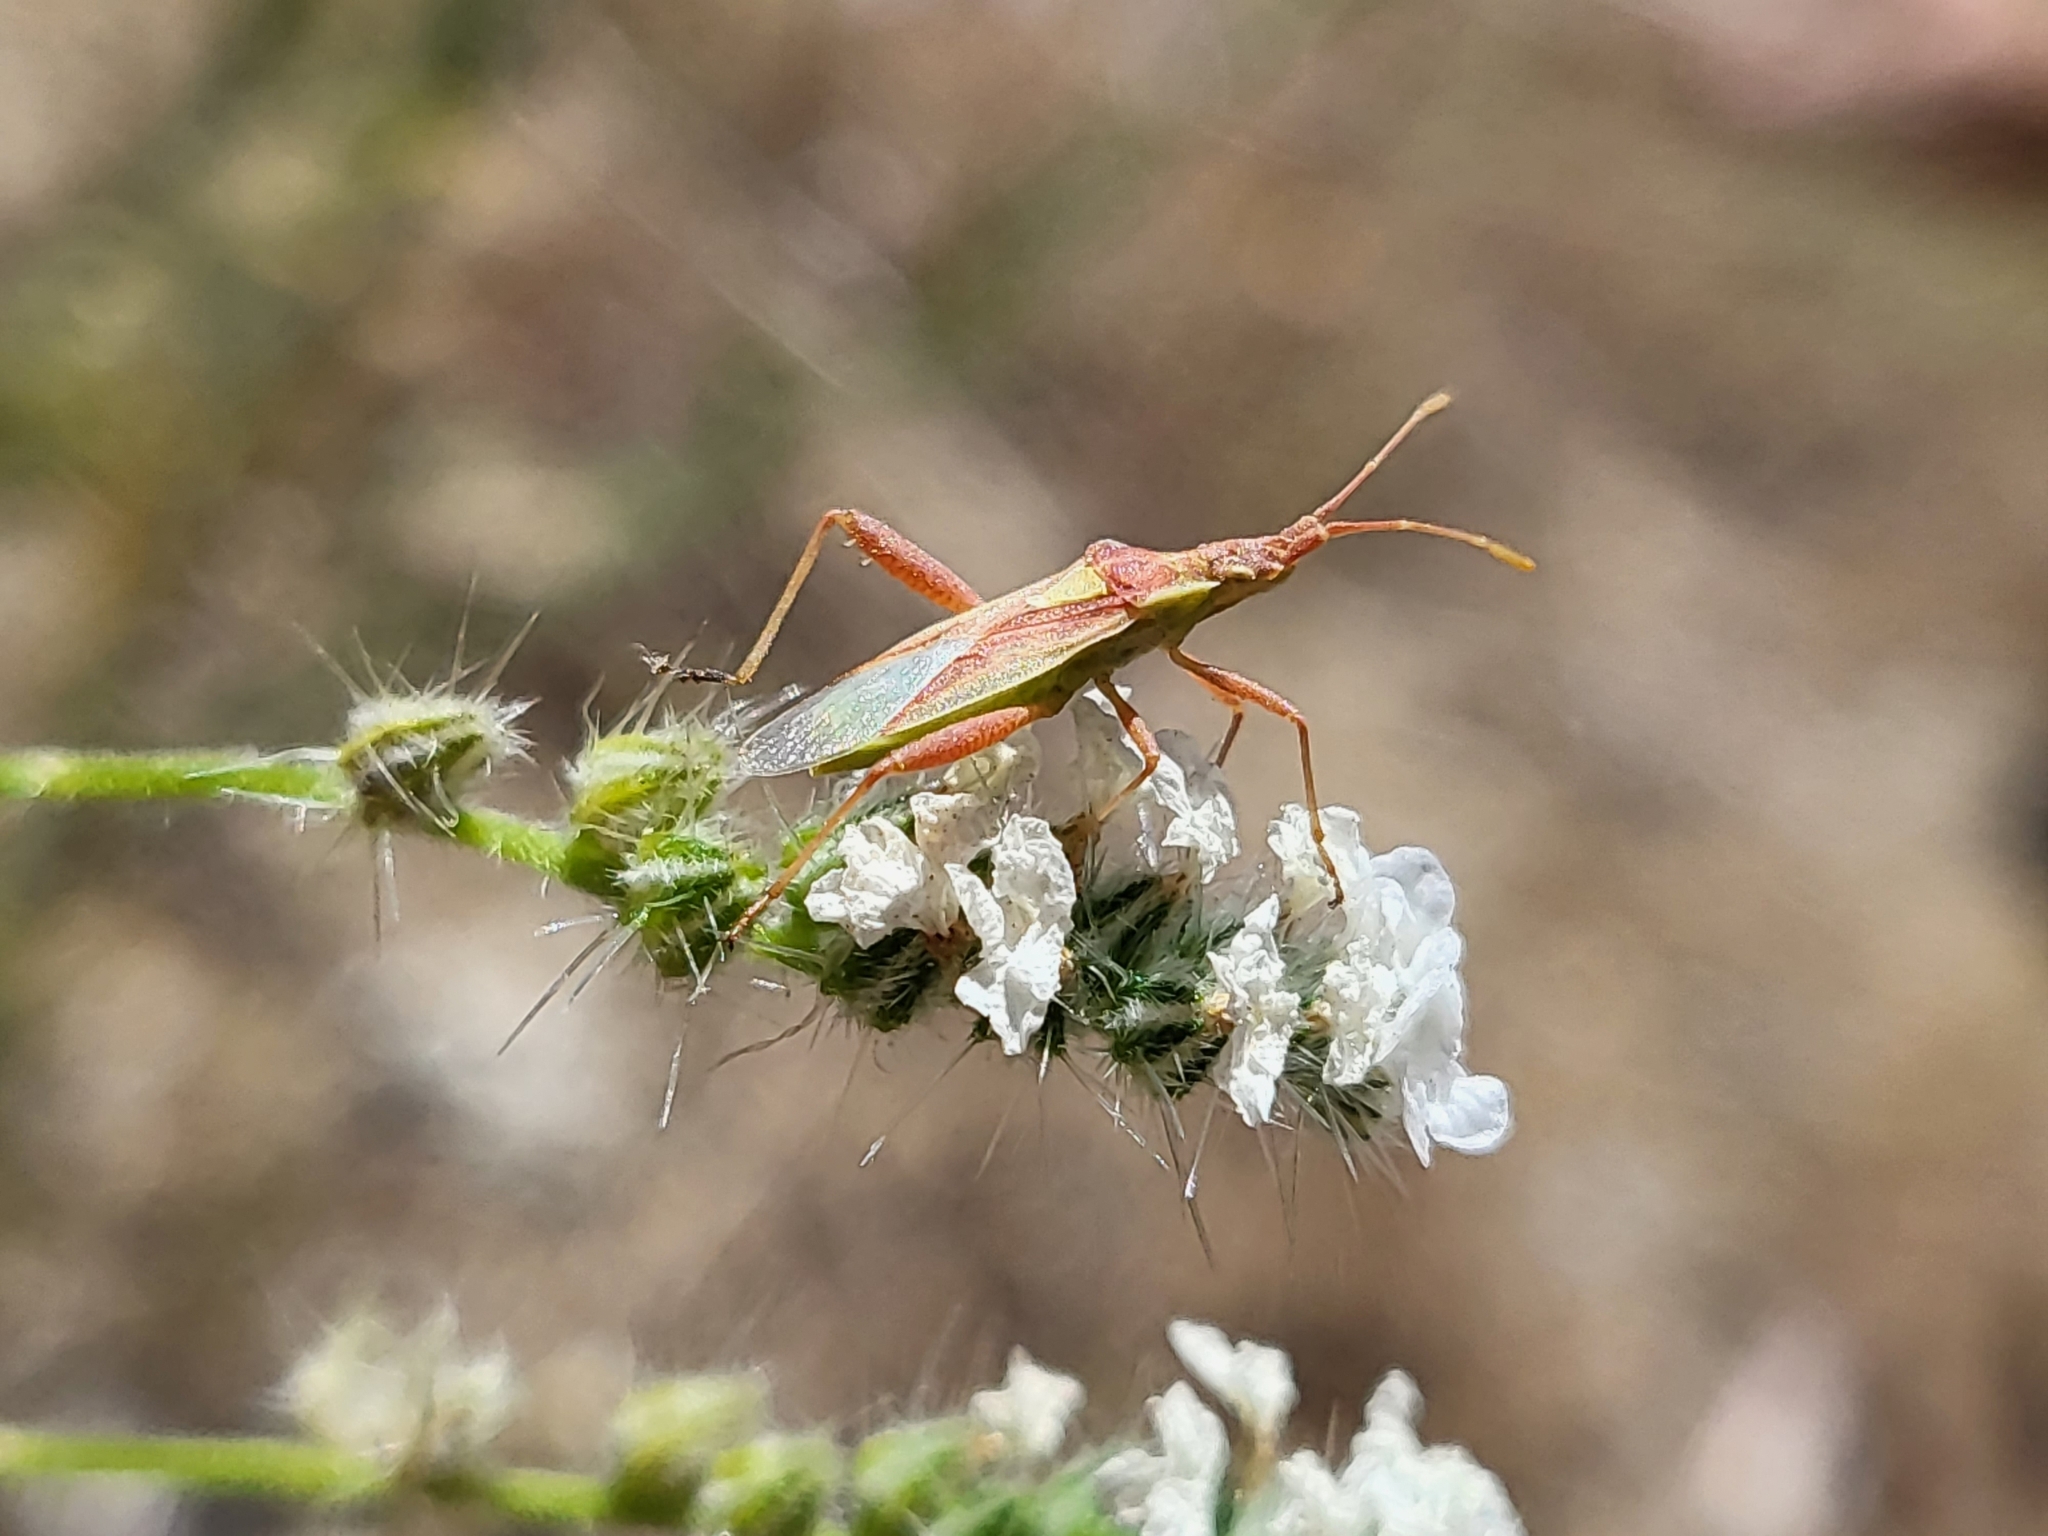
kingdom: Animalia
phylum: Arthropoda
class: Insecta
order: Hemiptera
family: Rhopalidae
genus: Harmostes
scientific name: Harmostes reflexulus
